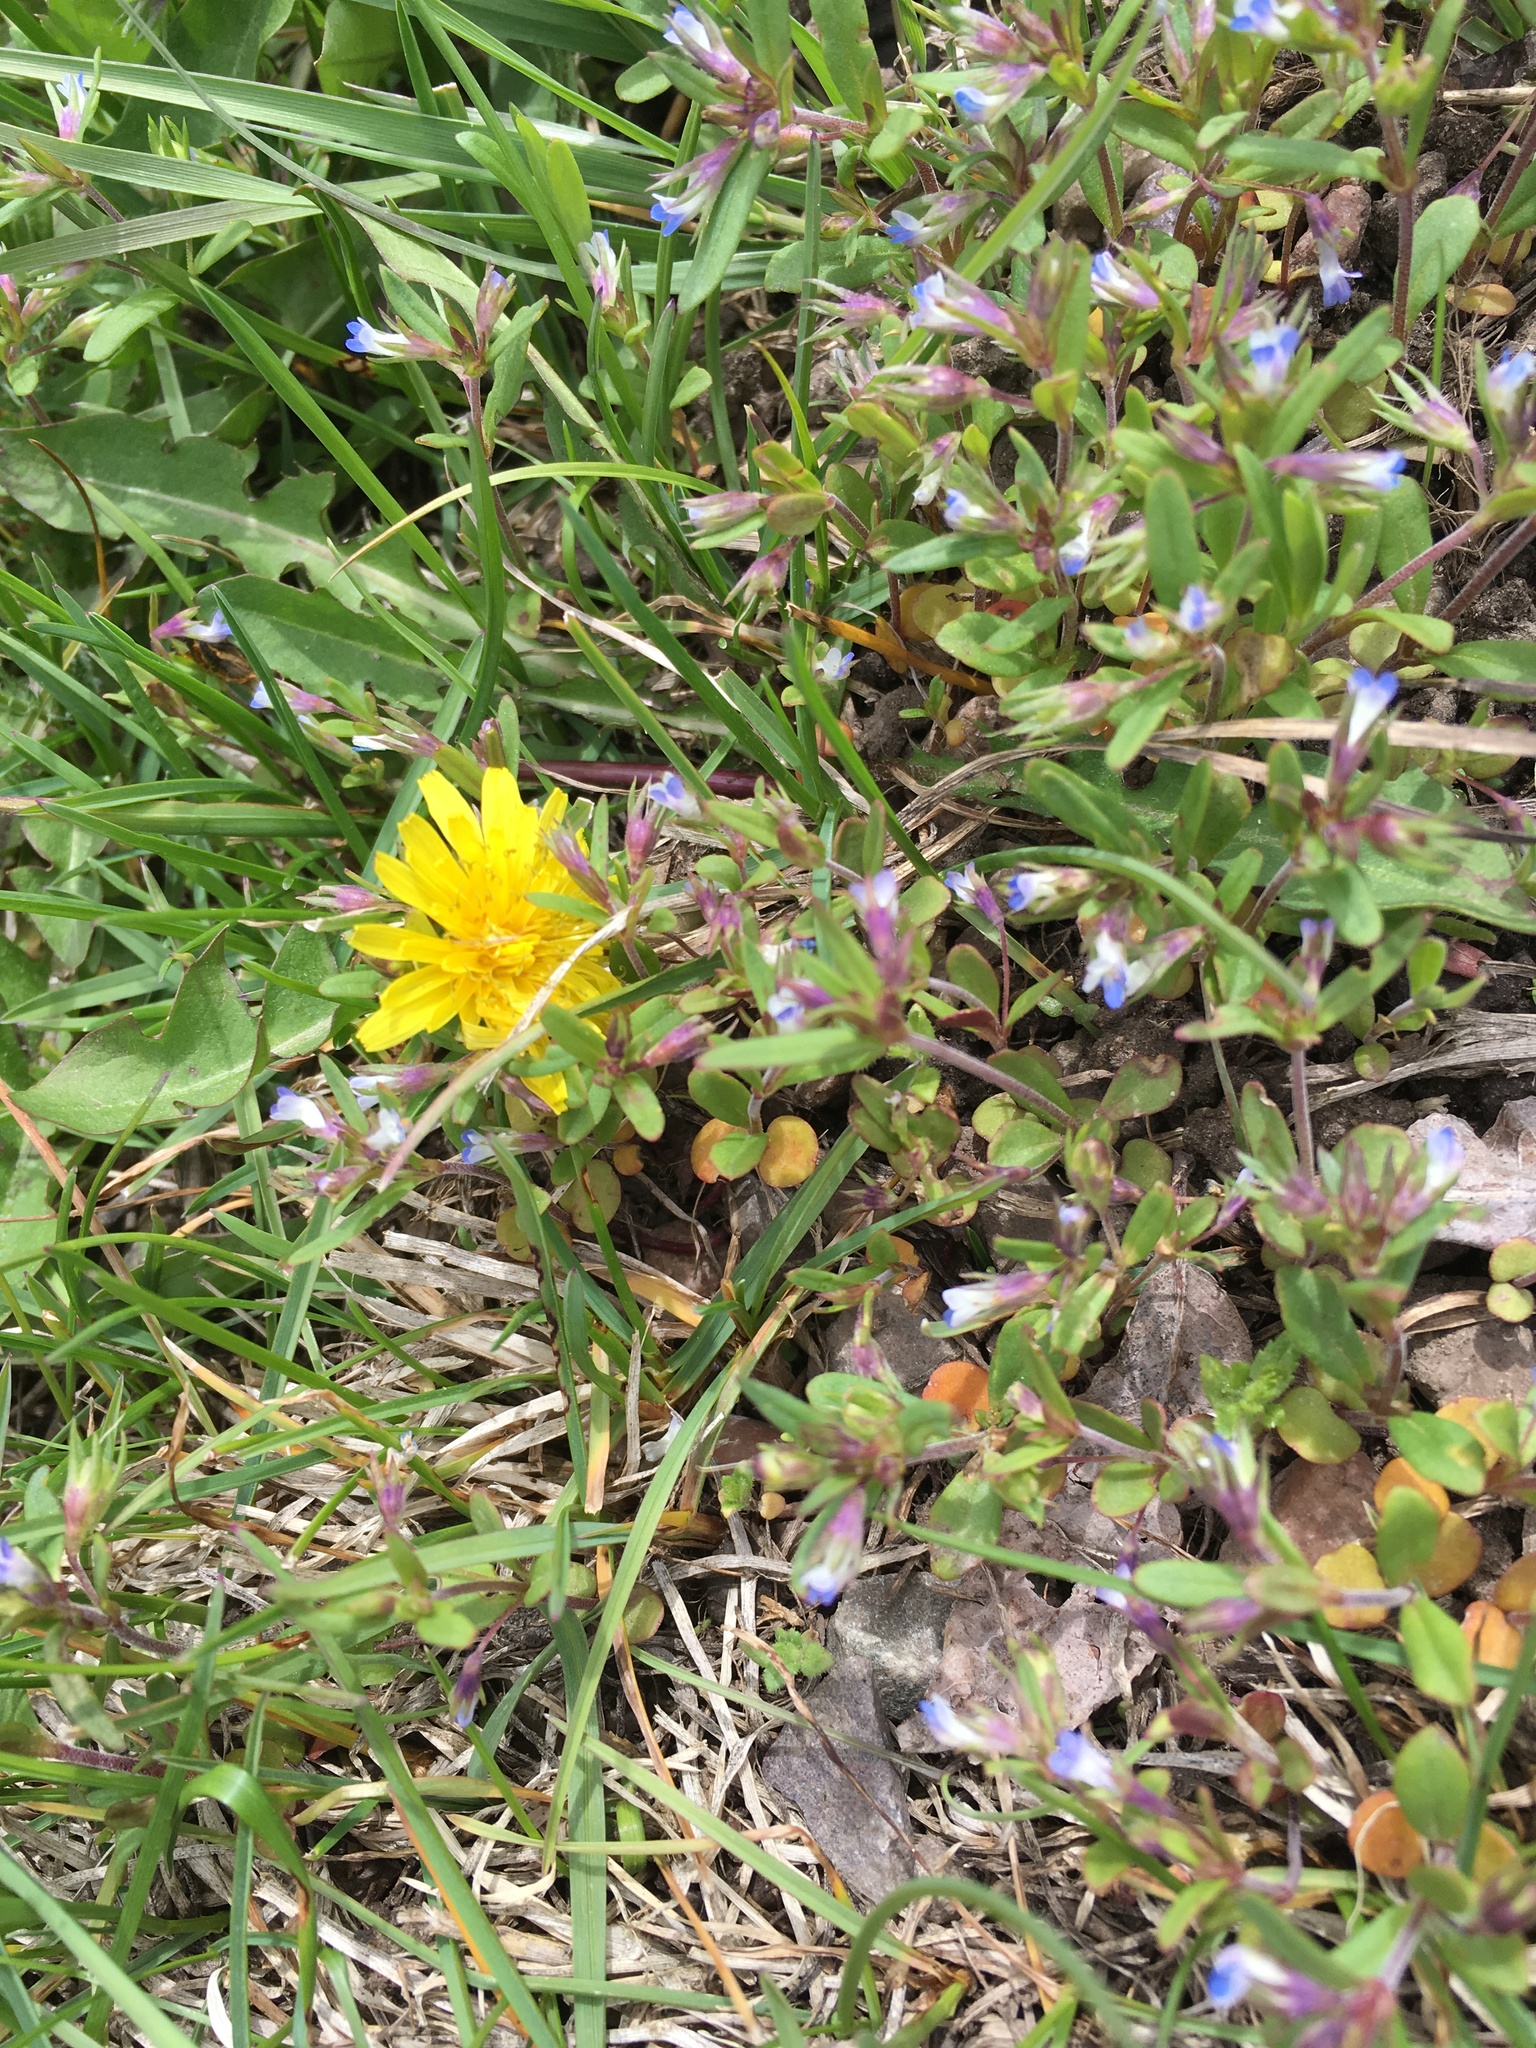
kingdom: Plantae
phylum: Tracheophyta
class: Magnoliopsida
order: Asterales
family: Asteraceae
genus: Taraxacum
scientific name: Taraxacum officinale
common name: Common dandelion
